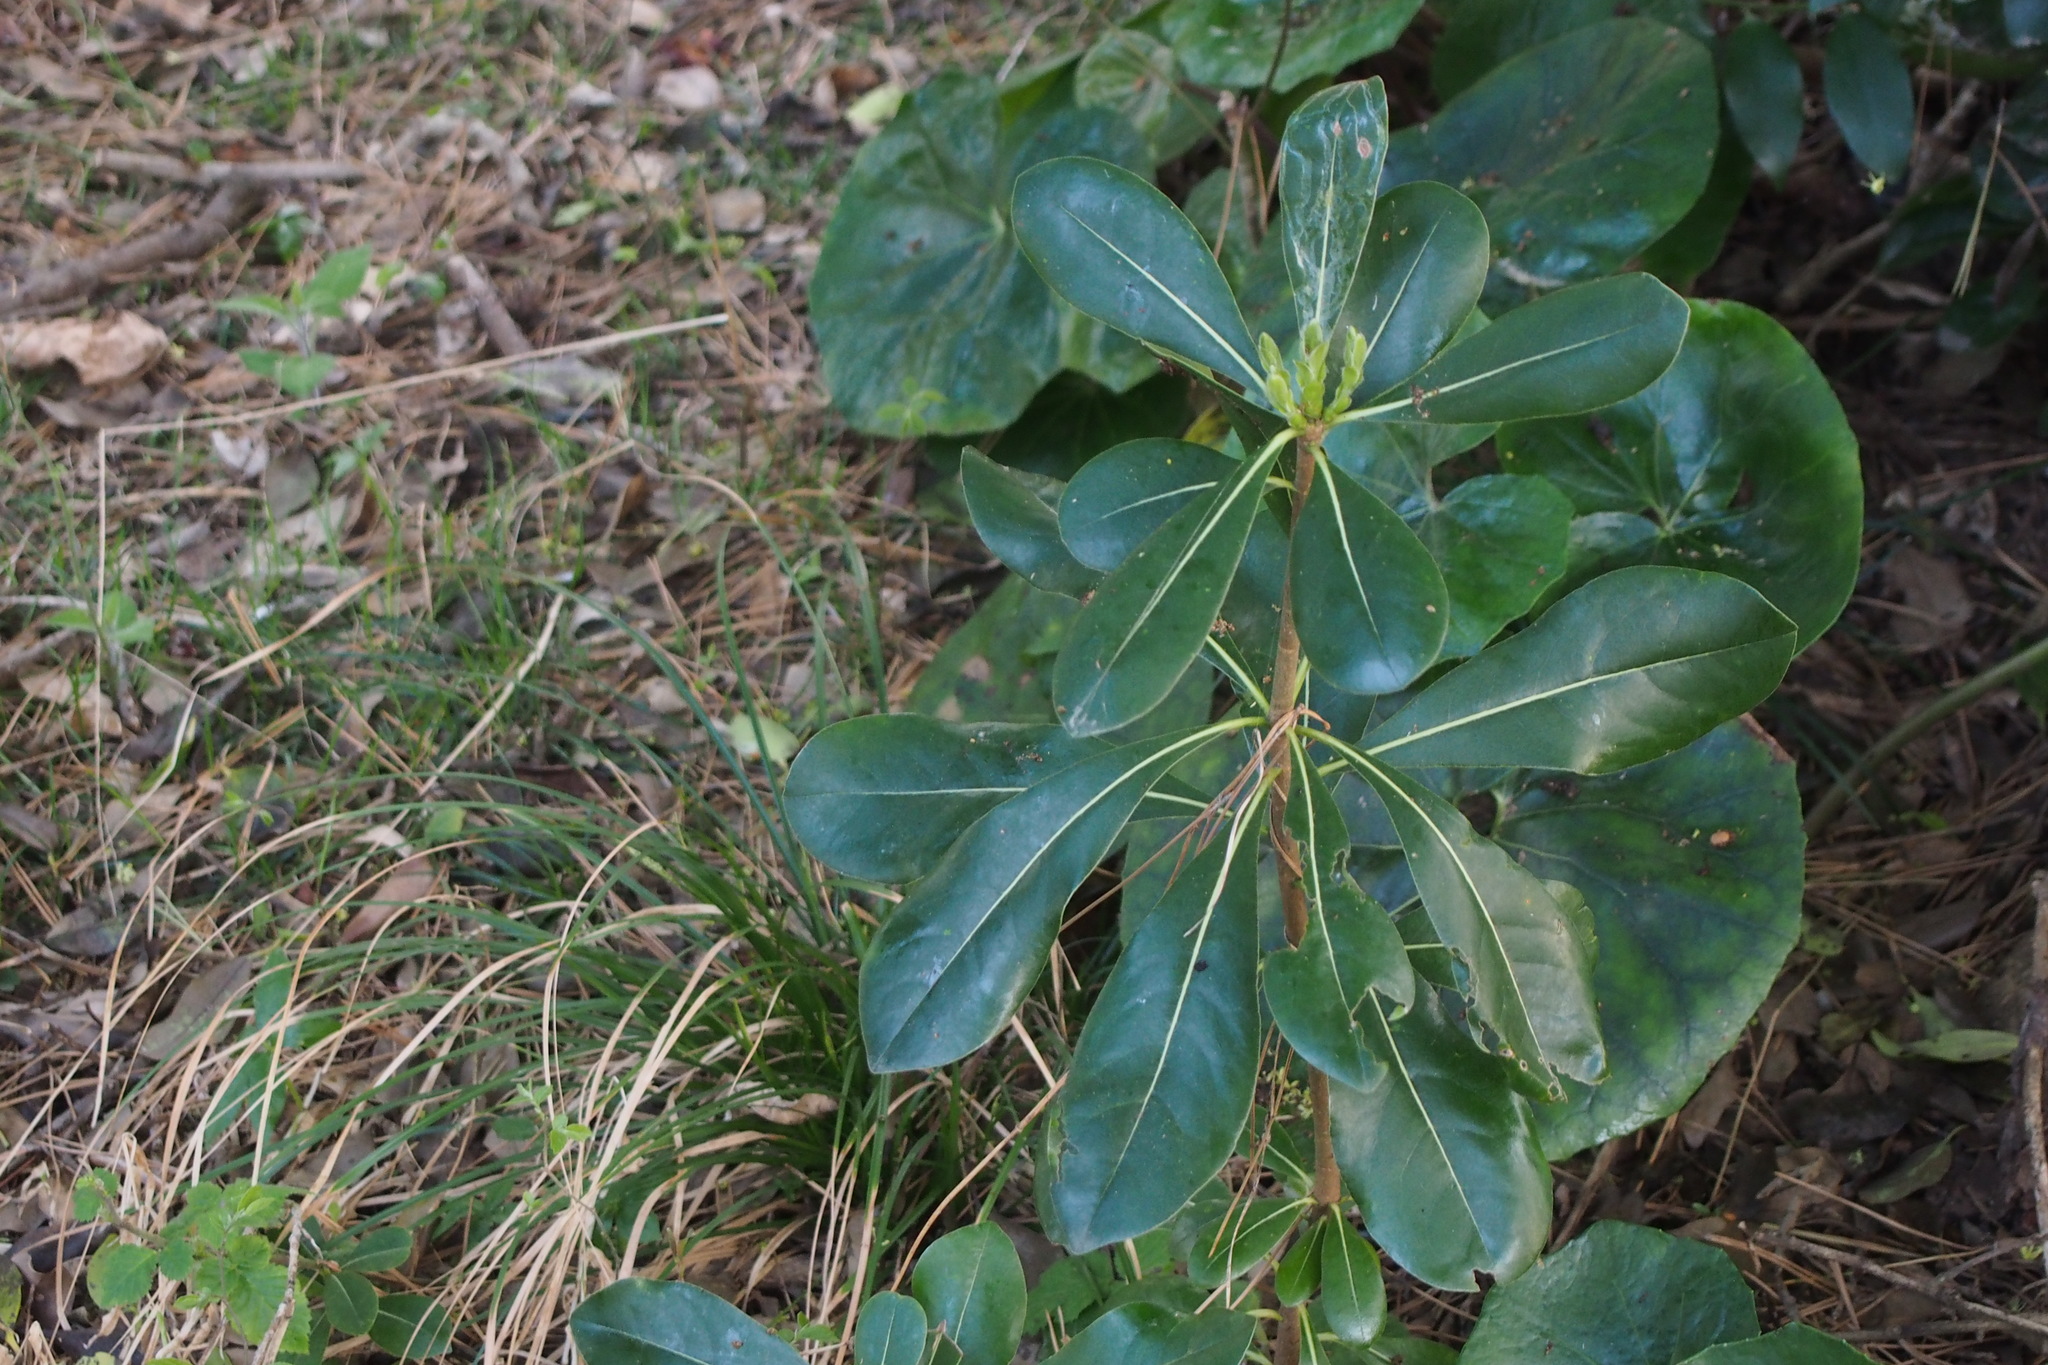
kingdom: Plantae
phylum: Tracheophyta
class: Magnoliopsida
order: Apiales
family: Pittosporaceae
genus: Pittosporum
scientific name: Pittosporum tobira
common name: Japanese cheesewood
